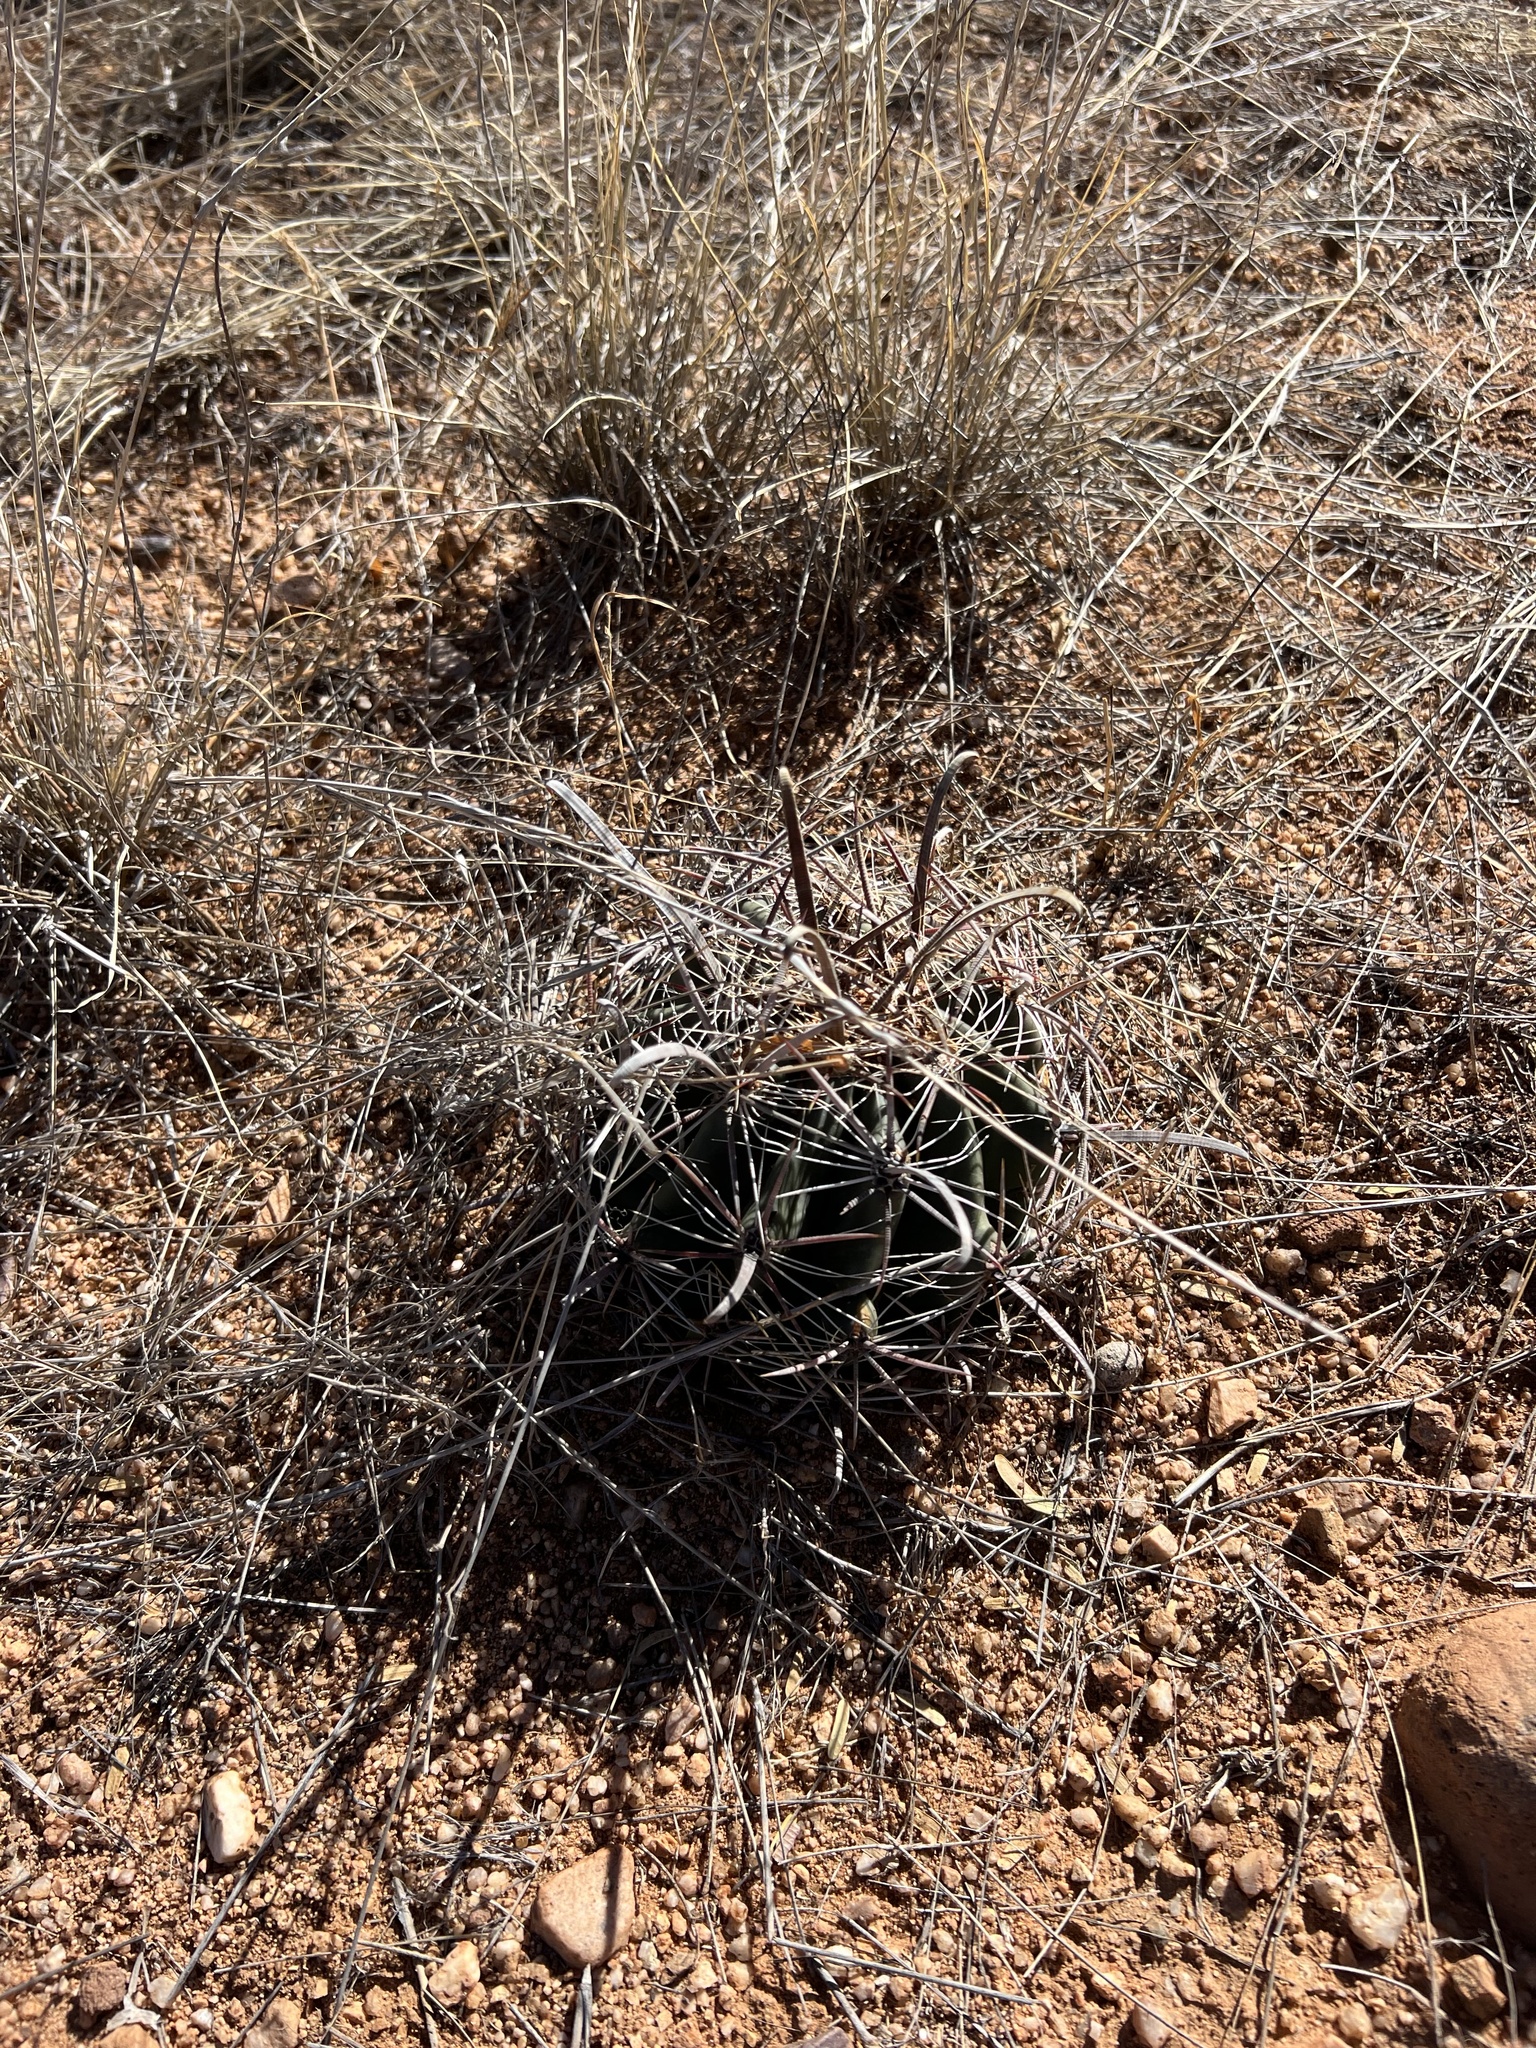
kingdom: Plantae
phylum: Tracheophyta
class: Magnoliopsida
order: Caryophyllales
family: Cactaceae
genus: Ferocactus
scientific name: Ferocactus wislizeni
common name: Candy barrel cactus
